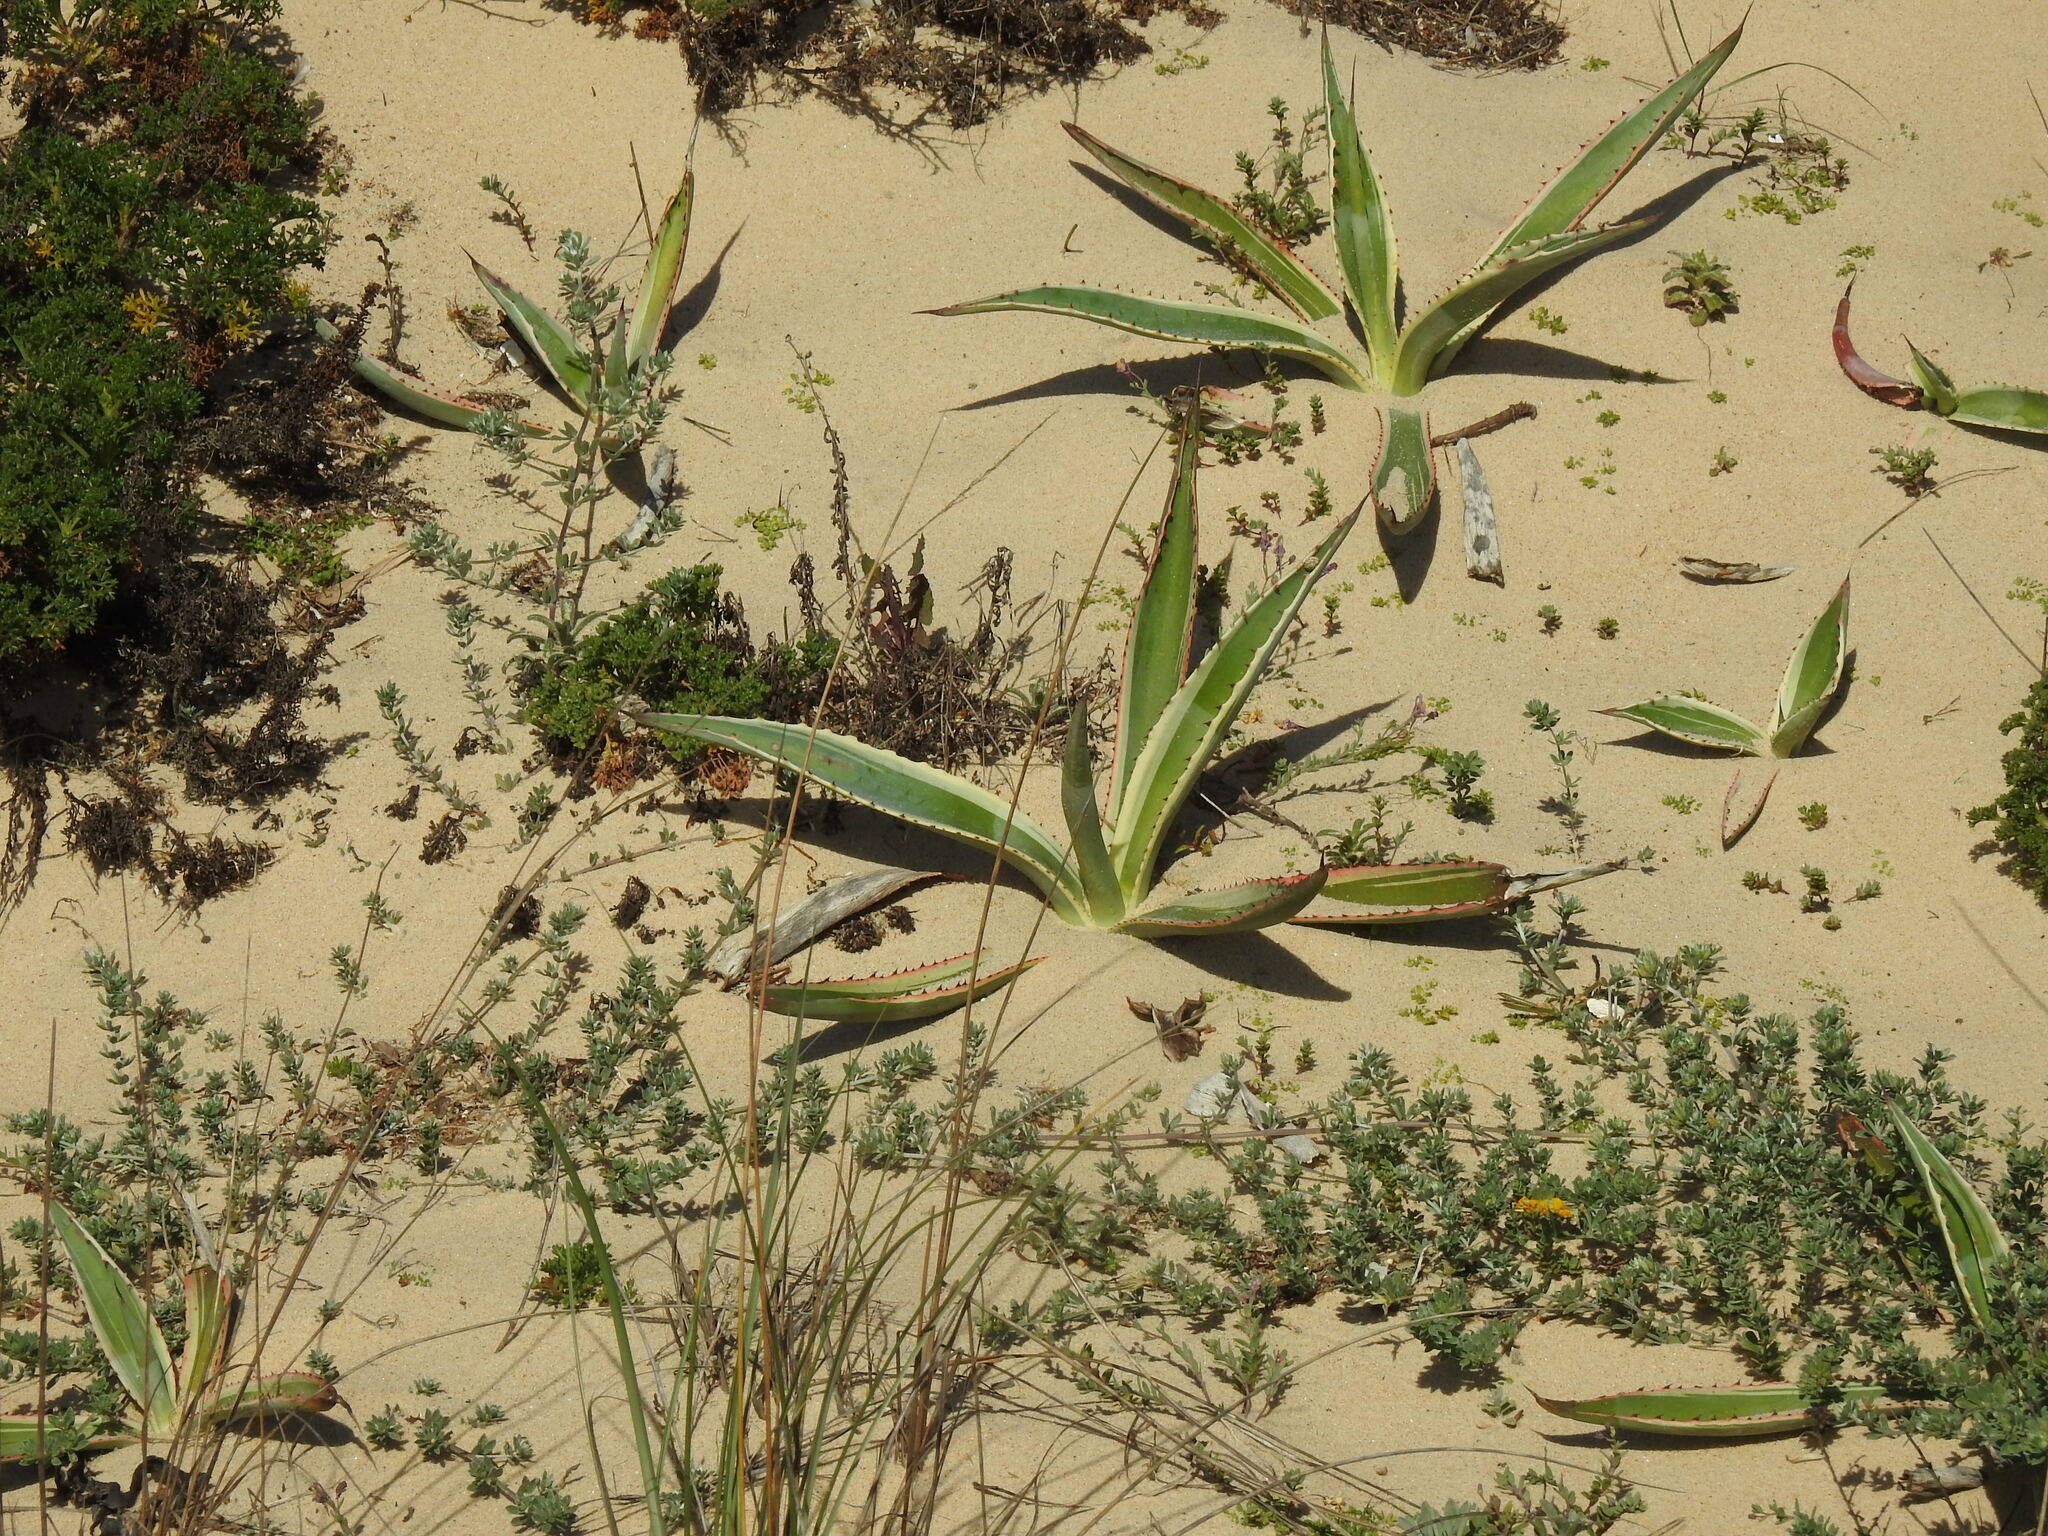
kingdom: Plantae
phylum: Tracheophyta
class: Liliopsida
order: Asparagales
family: Asparagaceae
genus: Agave
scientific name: Agave americana
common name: Centuryplant
